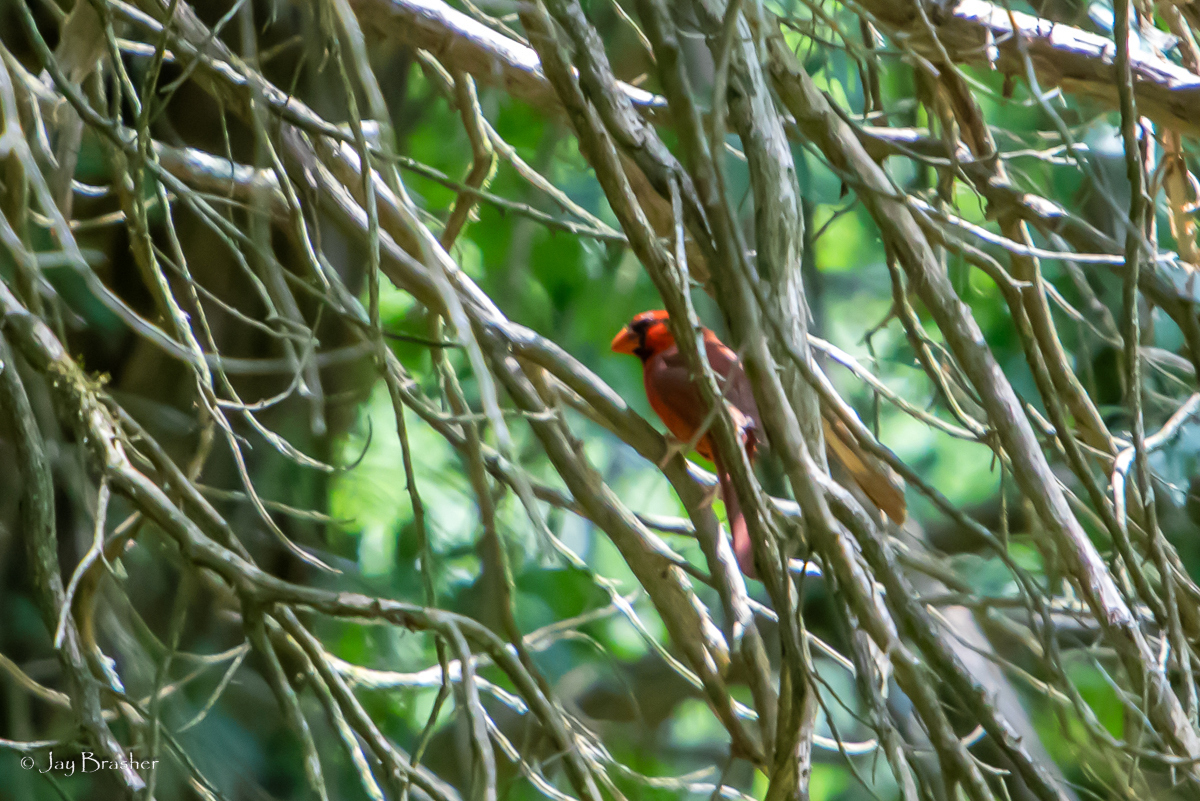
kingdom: Animalia
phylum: Chordata
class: Aves
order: Passeriformes
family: Cardinalidae
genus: Cardinalis
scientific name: Cardinalis cardinalis
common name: Northern cardinal
